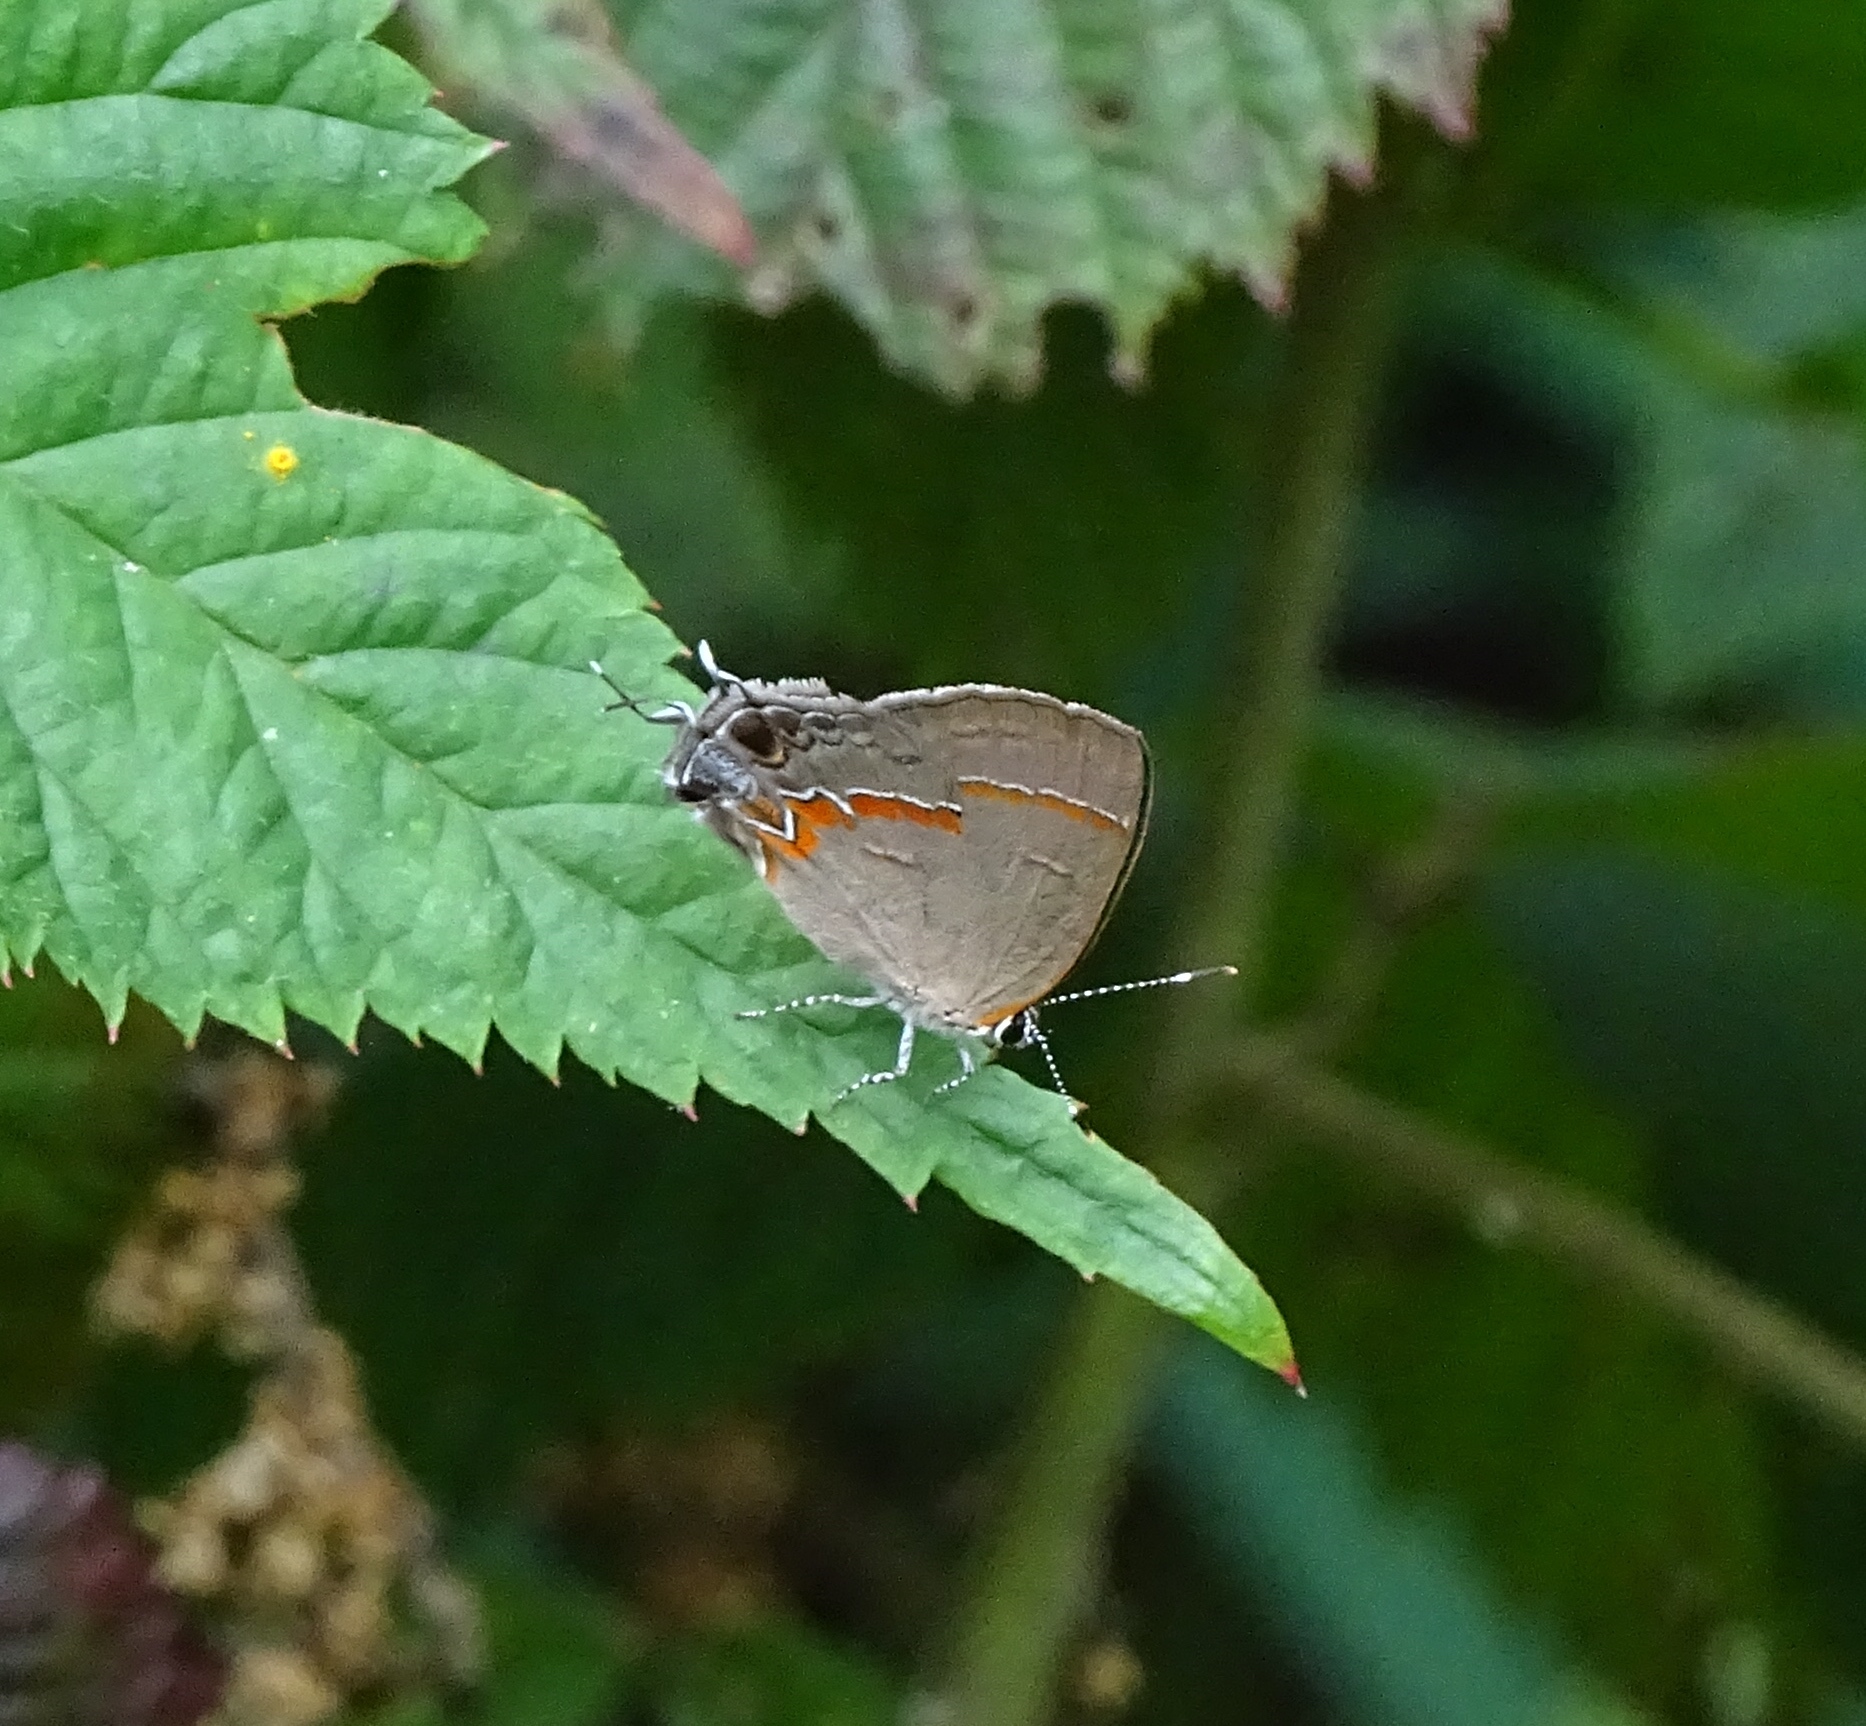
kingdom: Animalia
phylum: Arthropoda
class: Insecta
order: Lepidoptera
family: Lycaenidae
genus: Calycopis
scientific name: Calycopis cecrops
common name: Red-banded hairstreak
